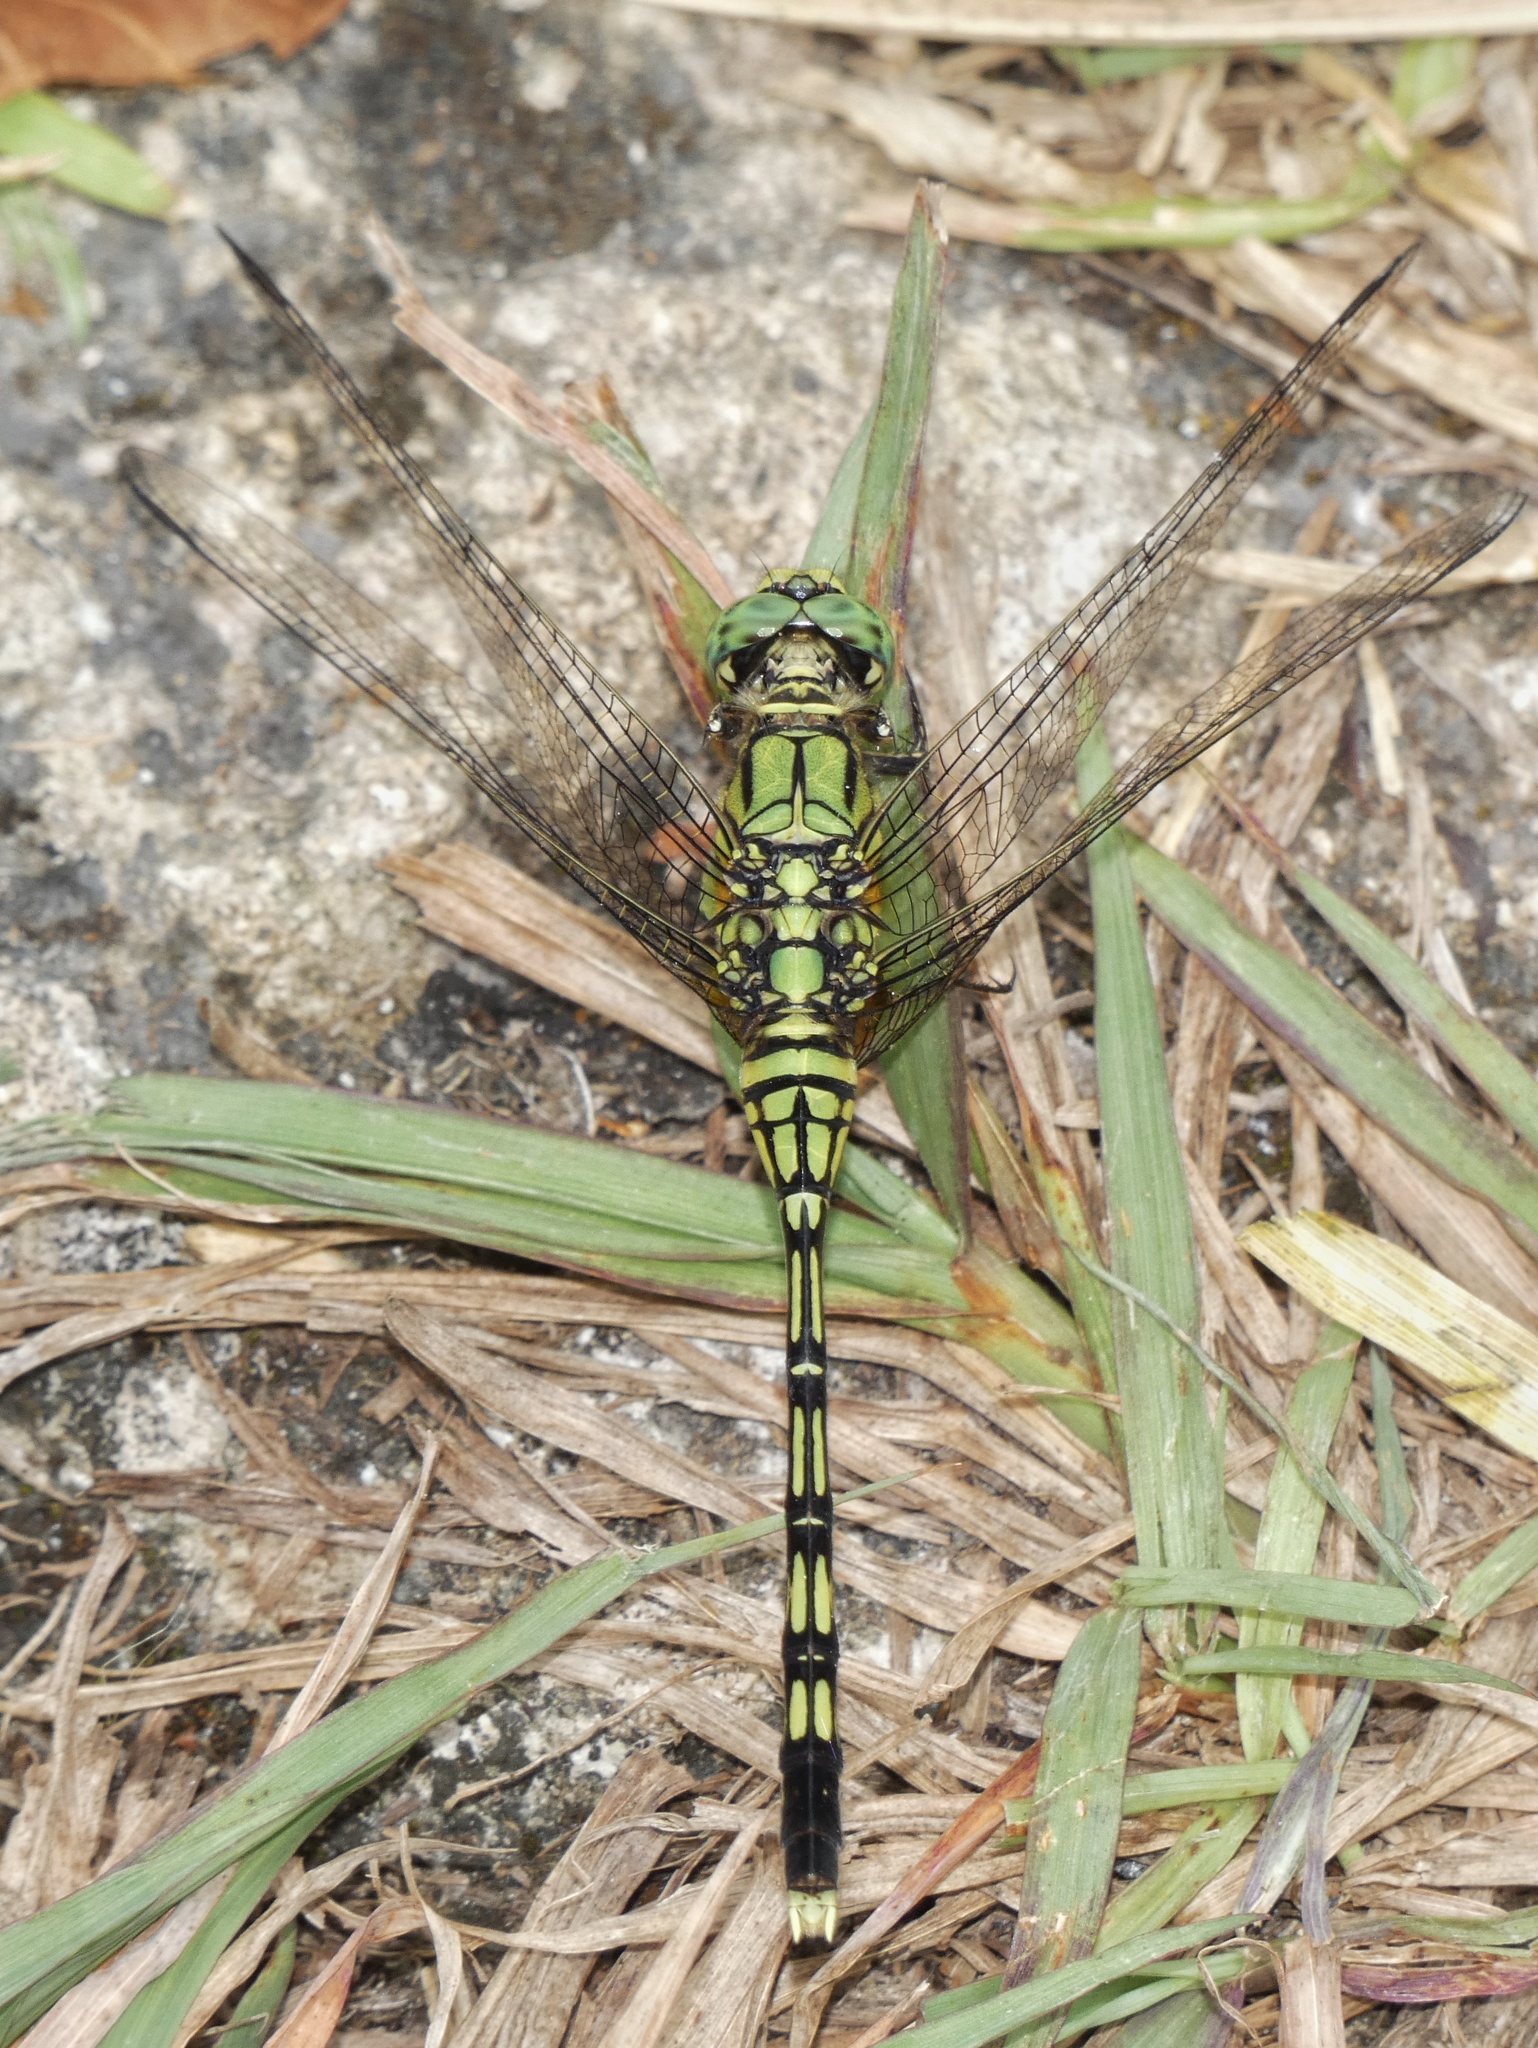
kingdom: Animalia
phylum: Arthropoda
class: Insecta
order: Odonata
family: Libellulidae
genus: Orthetrum
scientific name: Orthetrum serapia
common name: Green skimmer
